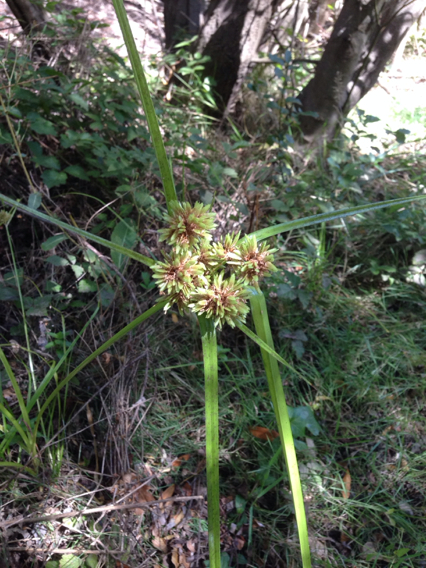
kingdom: Plantae
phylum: Tracheophyta
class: Liliopsida
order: Poales
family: Cyperaceae
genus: Cyperus
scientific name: Cyperus eragrostis
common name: Tall flatsedge
